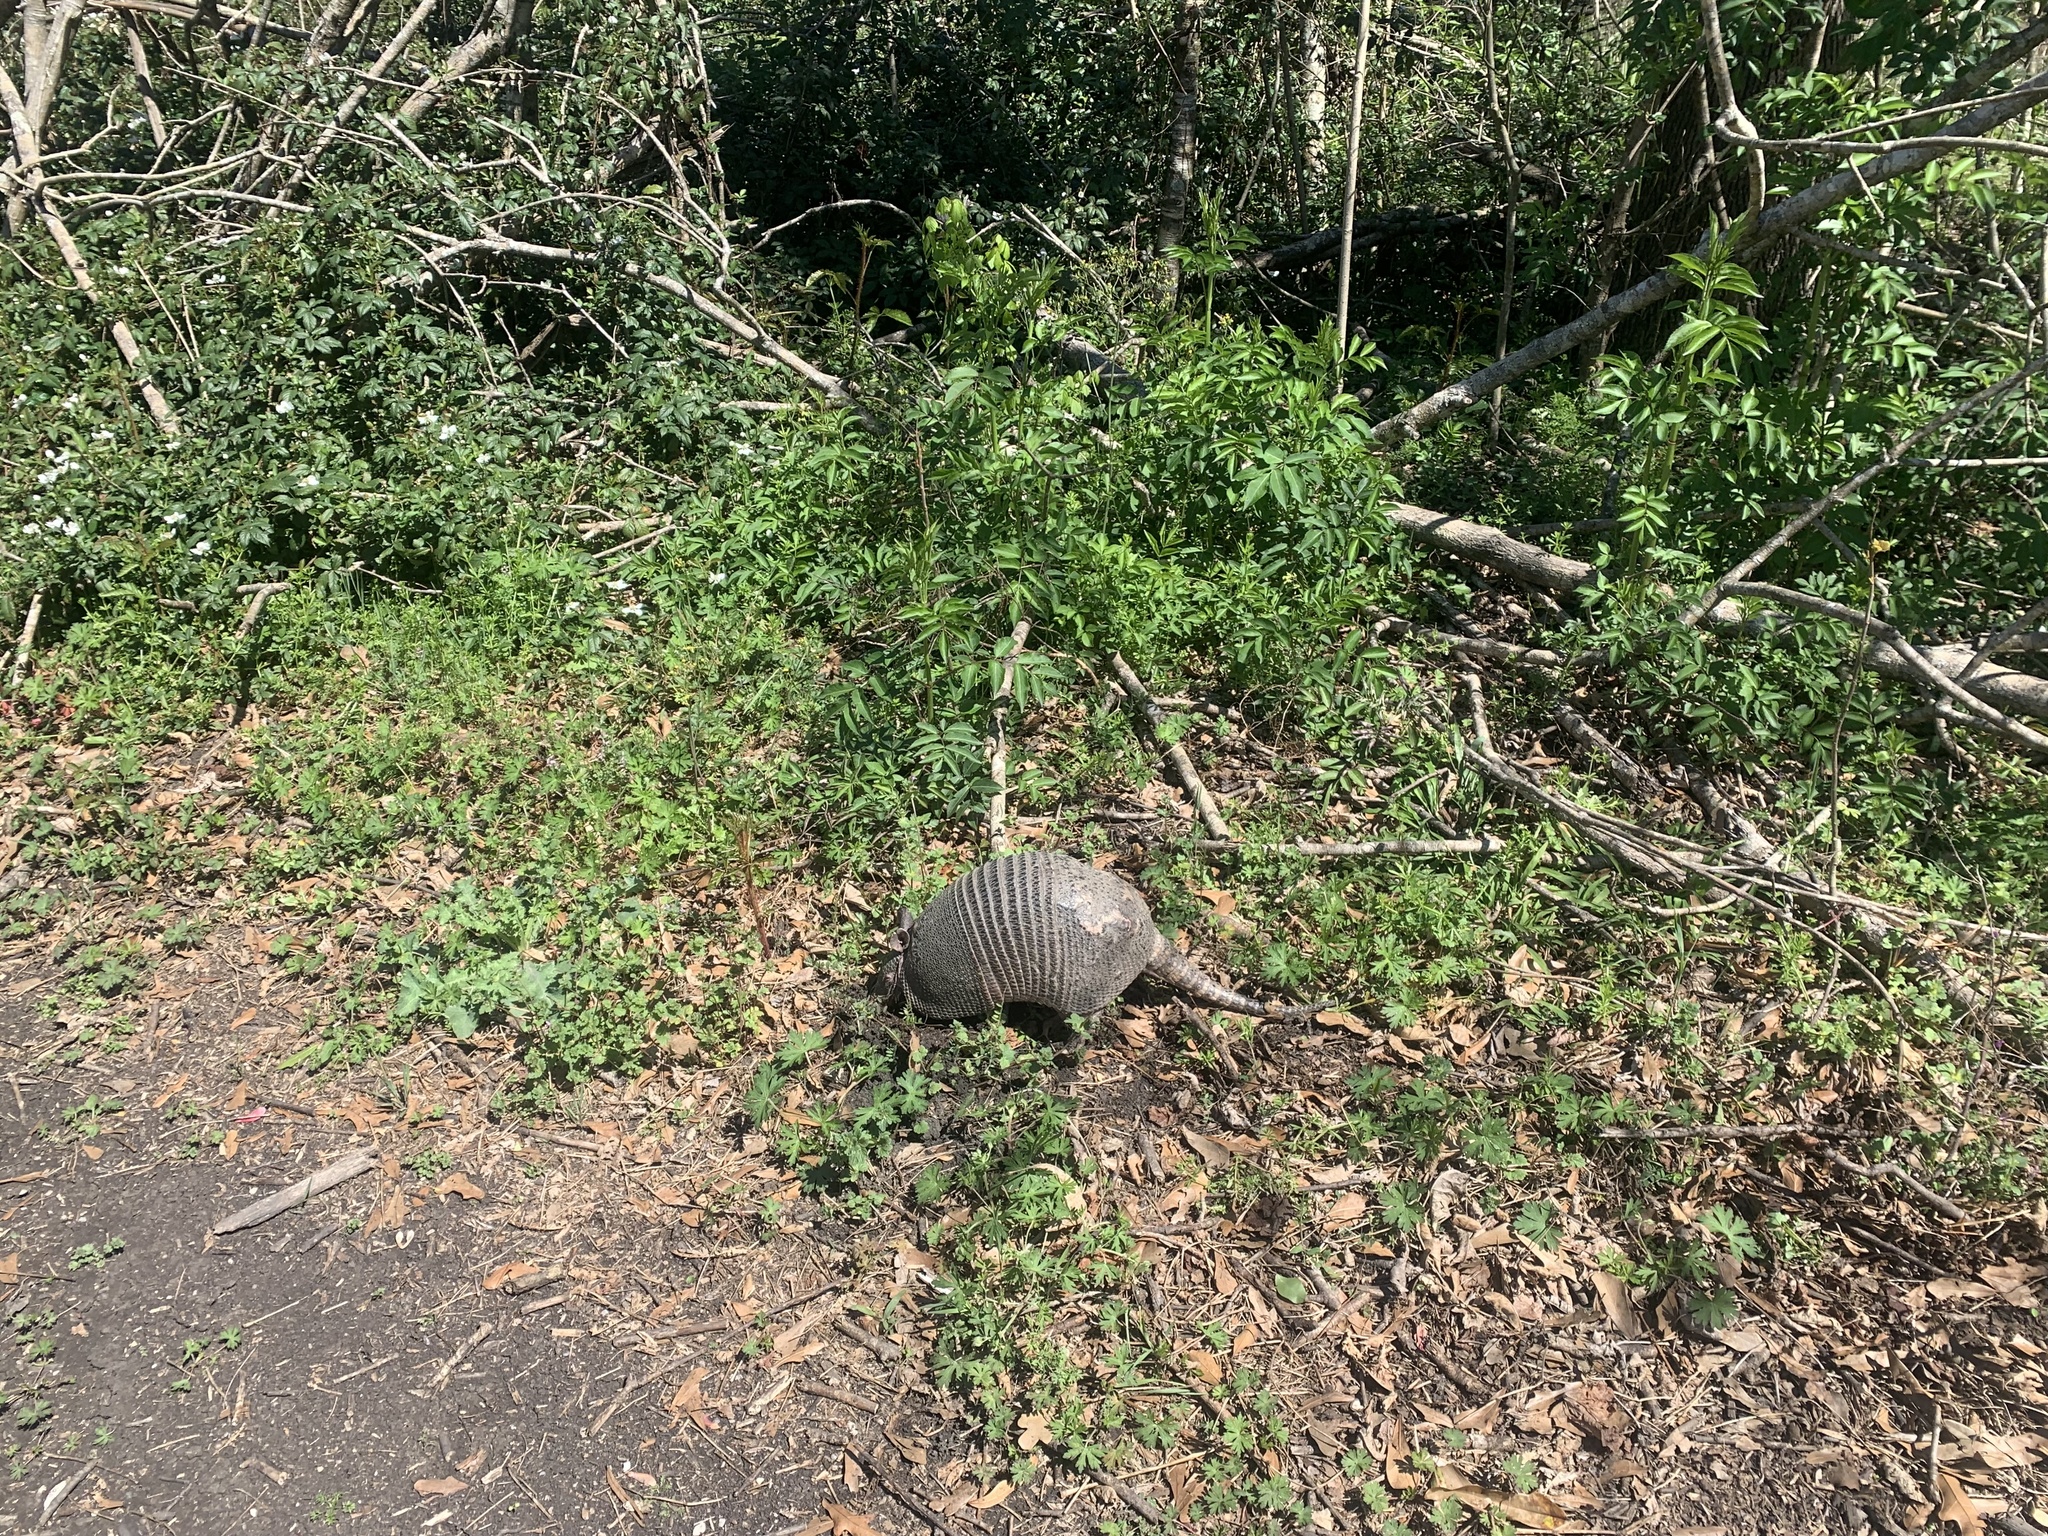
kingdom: Animalia
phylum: Chordata
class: Mammalia
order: Cingulata
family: Dasypodidae
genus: Dasypus
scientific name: Dasypus novemcinctus
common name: Nine-banded armadillo
